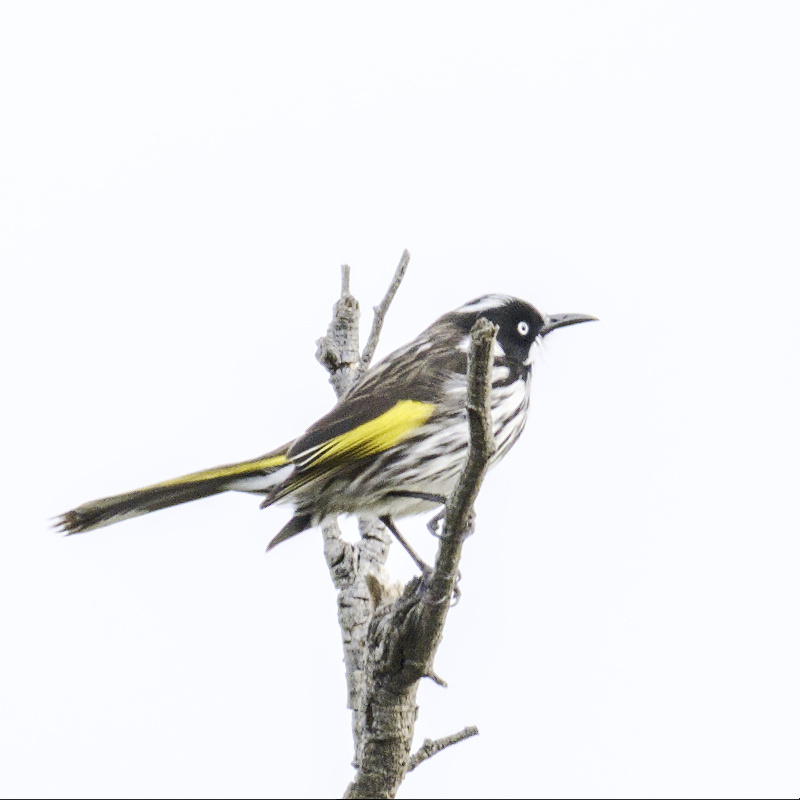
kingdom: Animalia
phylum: Chordata
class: Aves
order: Passeriformes
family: Meliphagidae
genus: Phylidonyris
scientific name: Phylidonyris novaehollandiae
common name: New holland honeyeater
